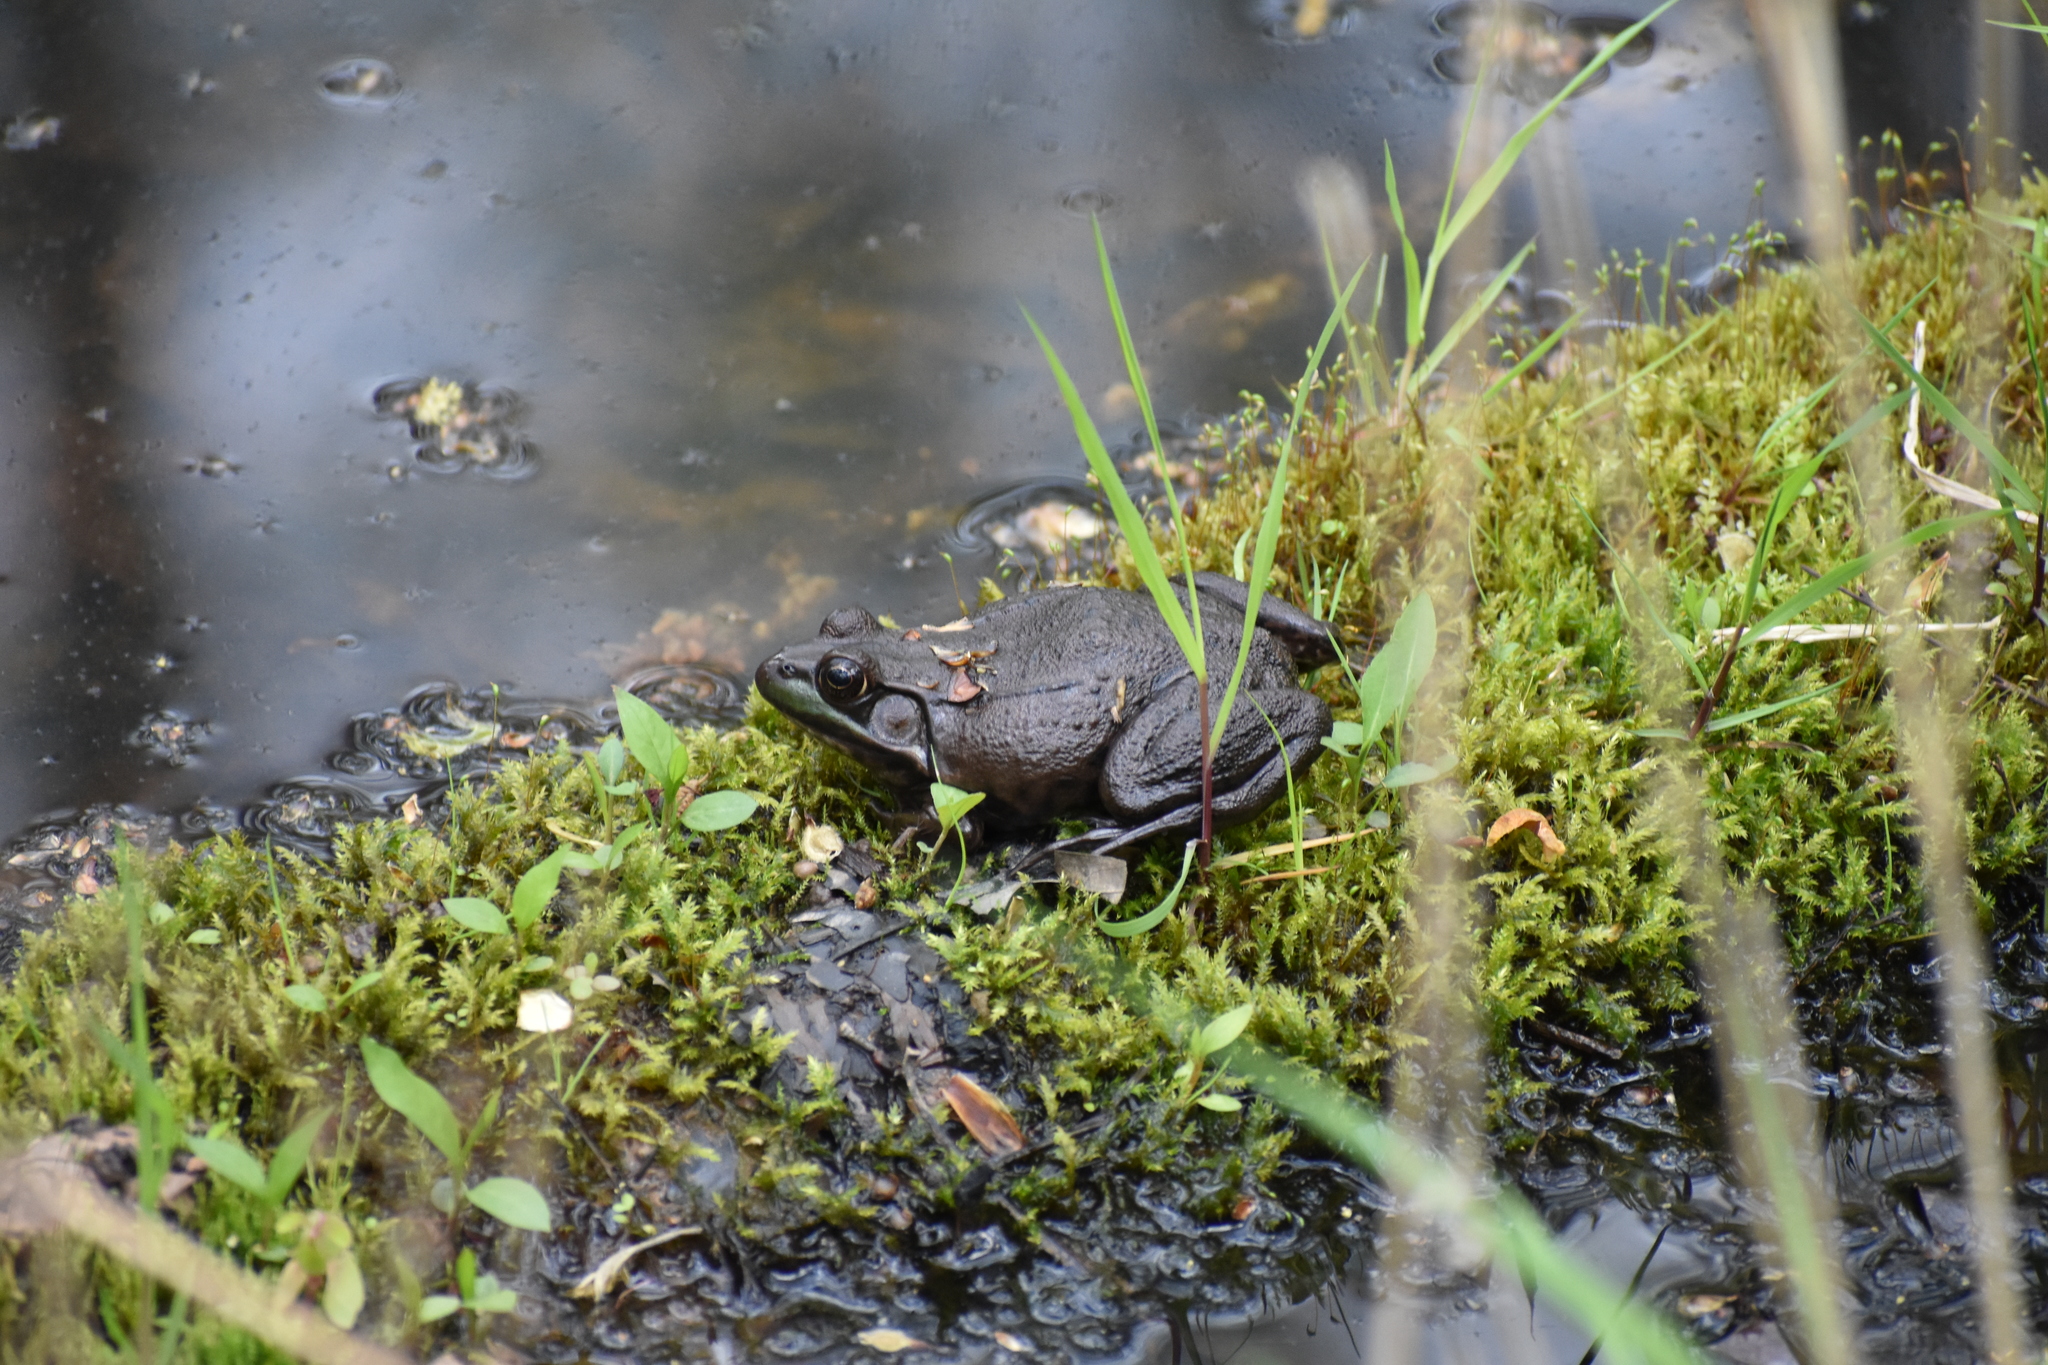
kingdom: Animalia
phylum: Chordata
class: Amphibia
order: Anura
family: Ranidae
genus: Lithobates
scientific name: Lithobates clamitans
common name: Green frog
